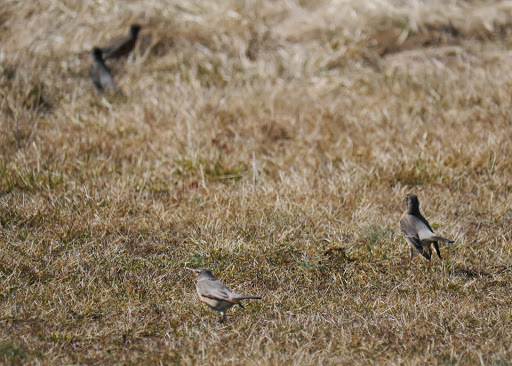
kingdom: Animalia
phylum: Chordata
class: Aves
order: Passeriformes
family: Turdidae
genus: Turdus
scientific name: Turdus migratorius
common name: American robin
